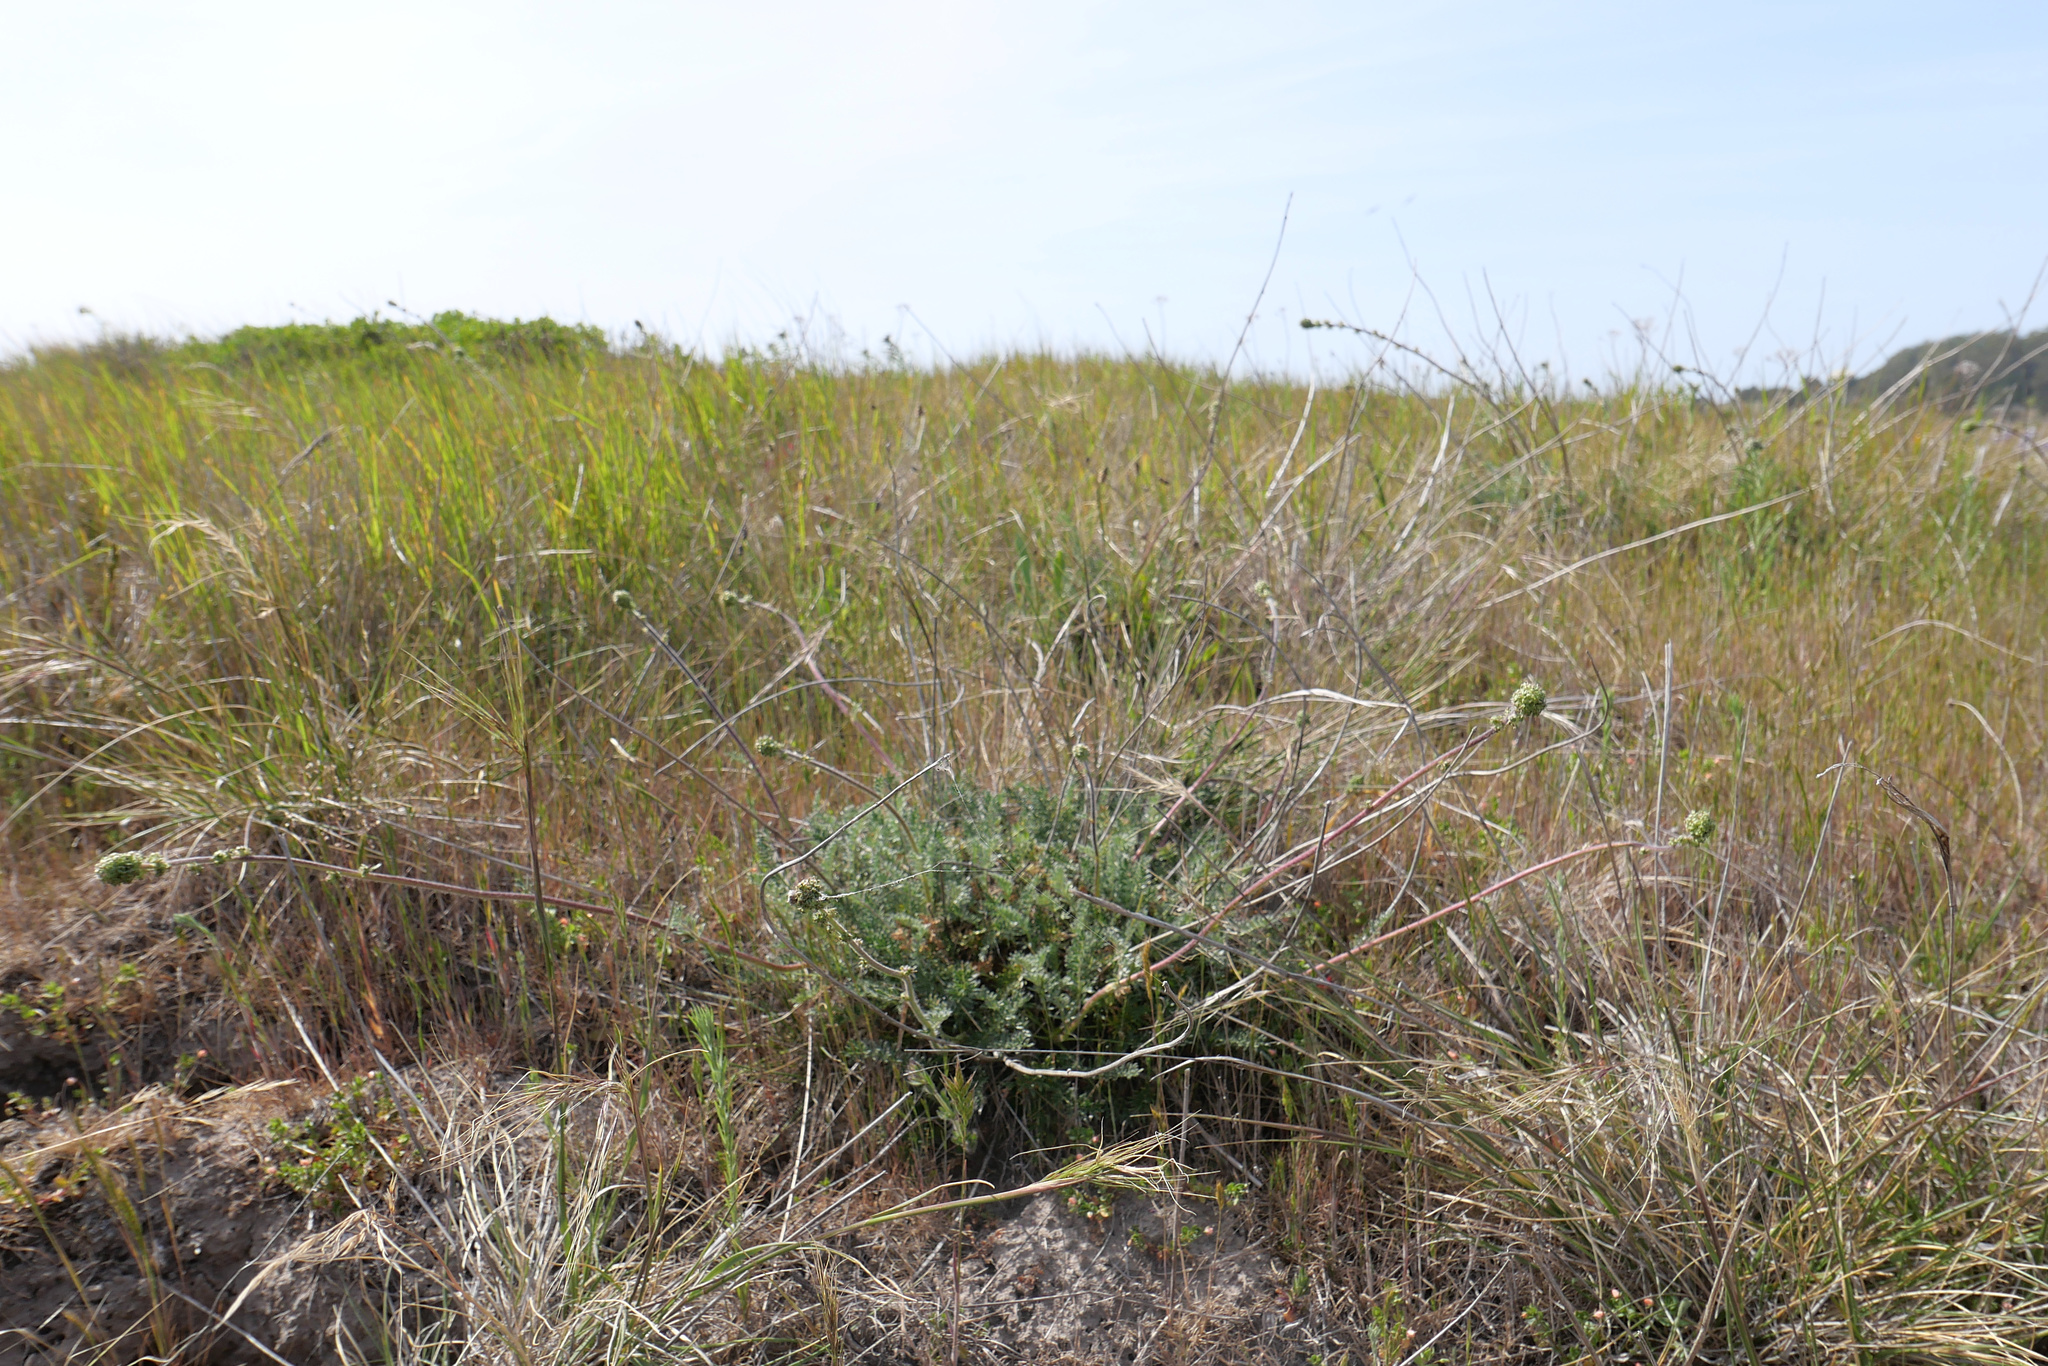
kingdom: Plantae
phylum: Tracheophyta
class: Magnoliopsida
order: Rosales
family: Rosaceae
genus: Acaena
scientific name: Acaena pinnatifida
